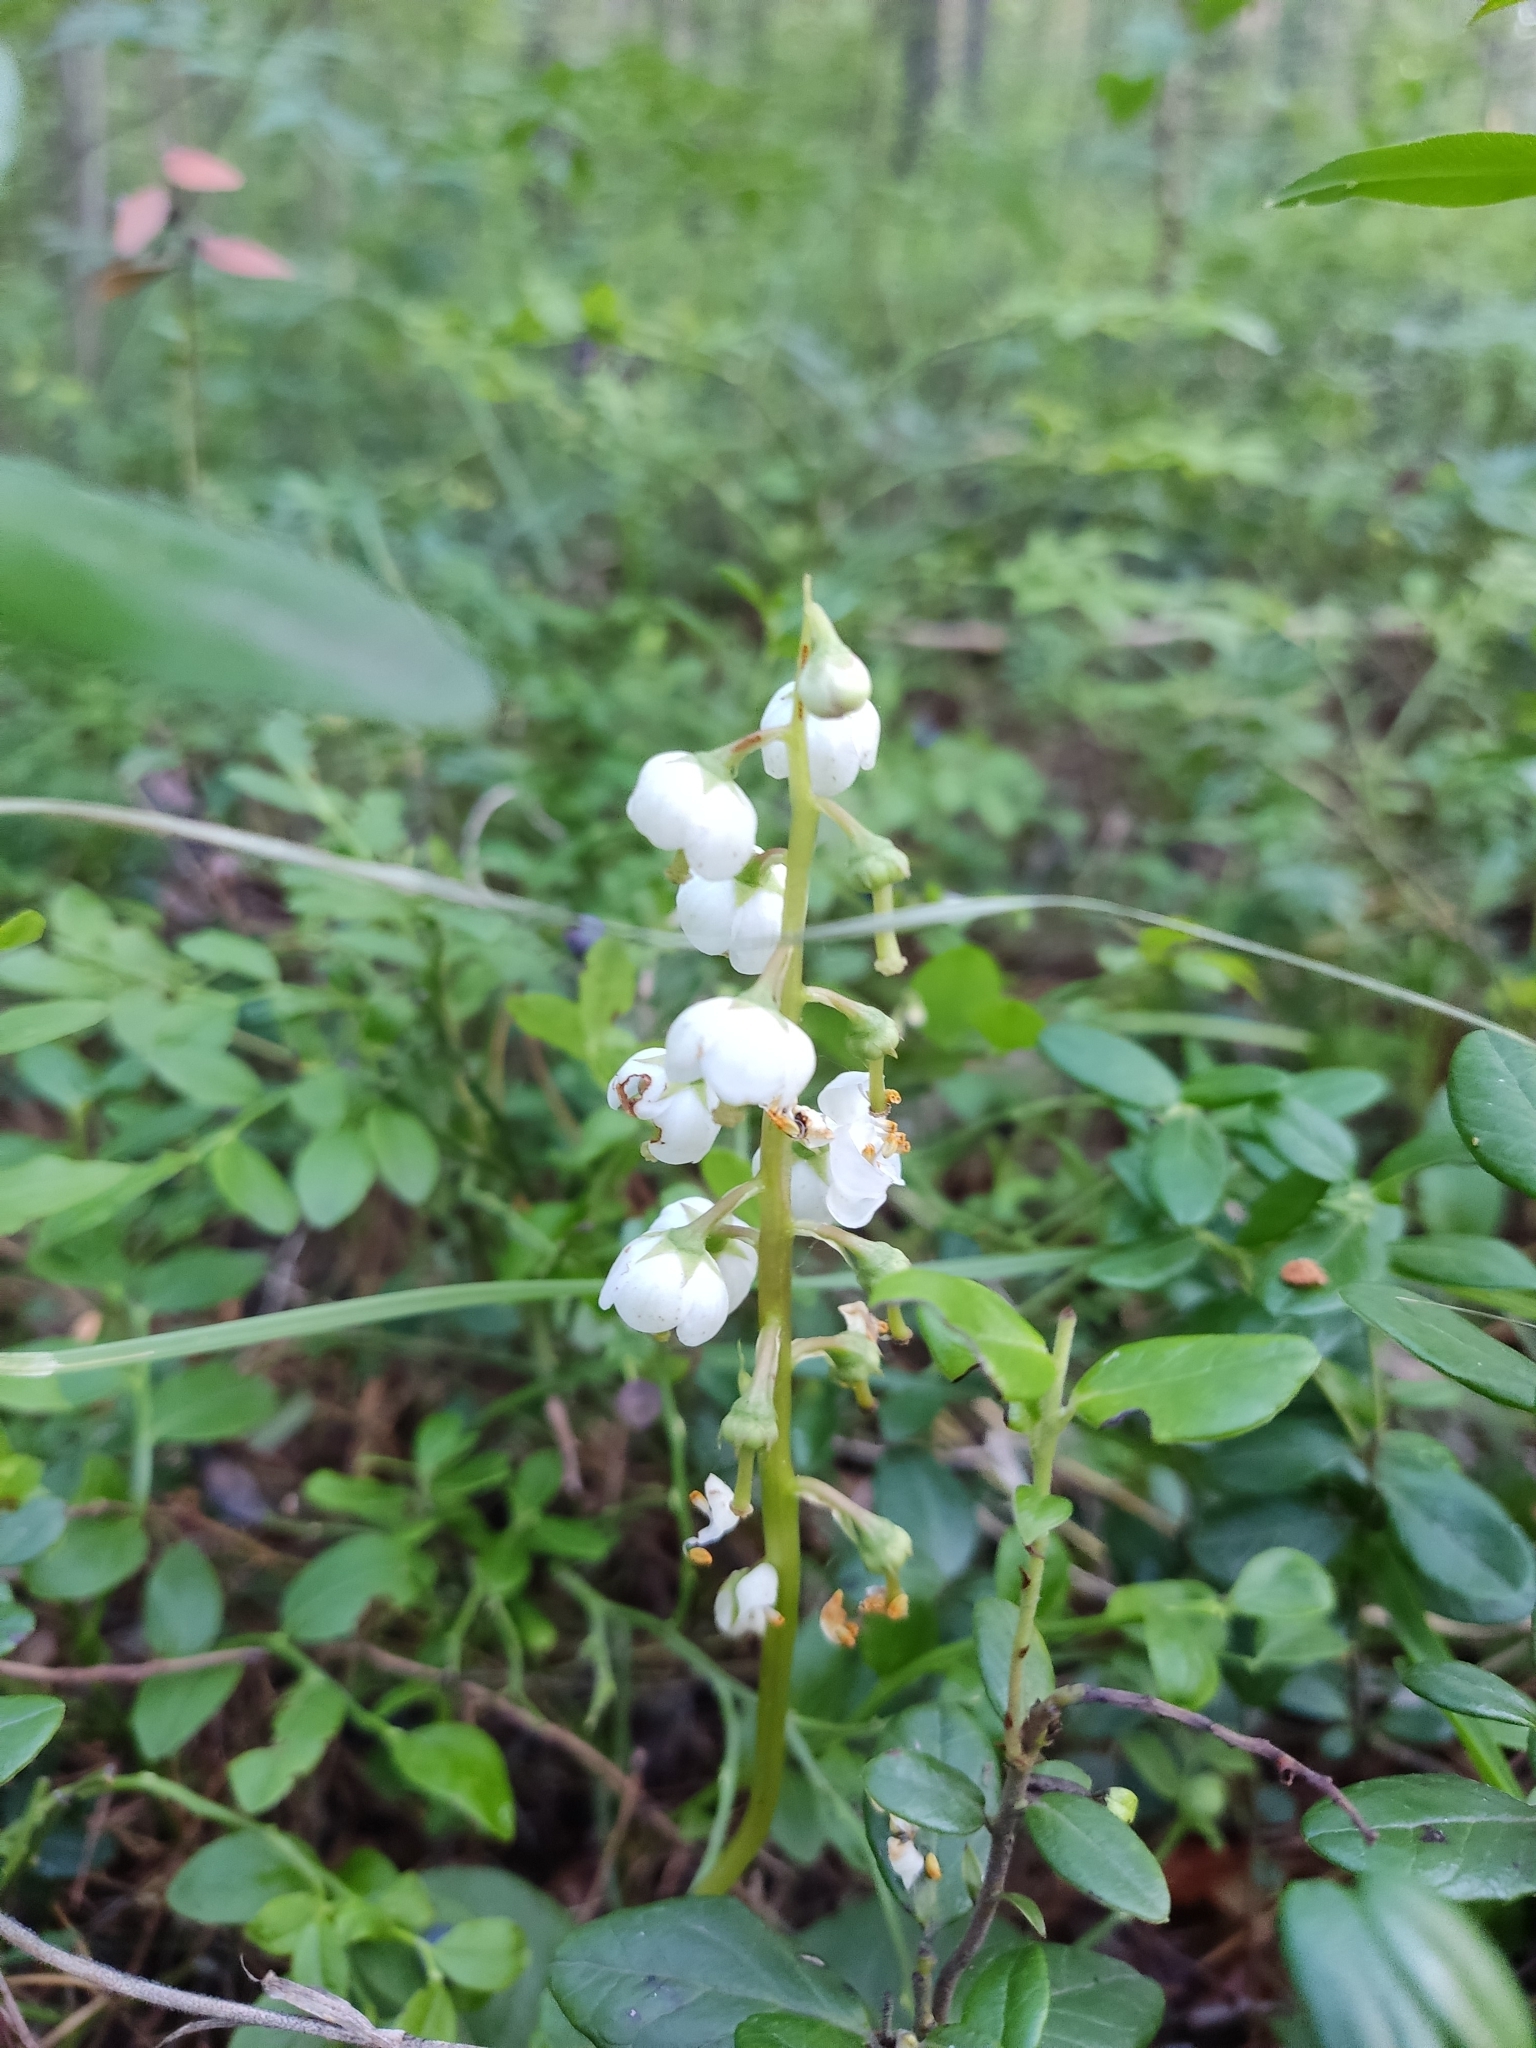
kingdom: Plantae
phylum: Tracheophyta
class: Magnoliopsida
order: Ericales
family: Ericaceae
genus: Pyrola
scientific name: Pyrola minor
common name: Common wintergreen
